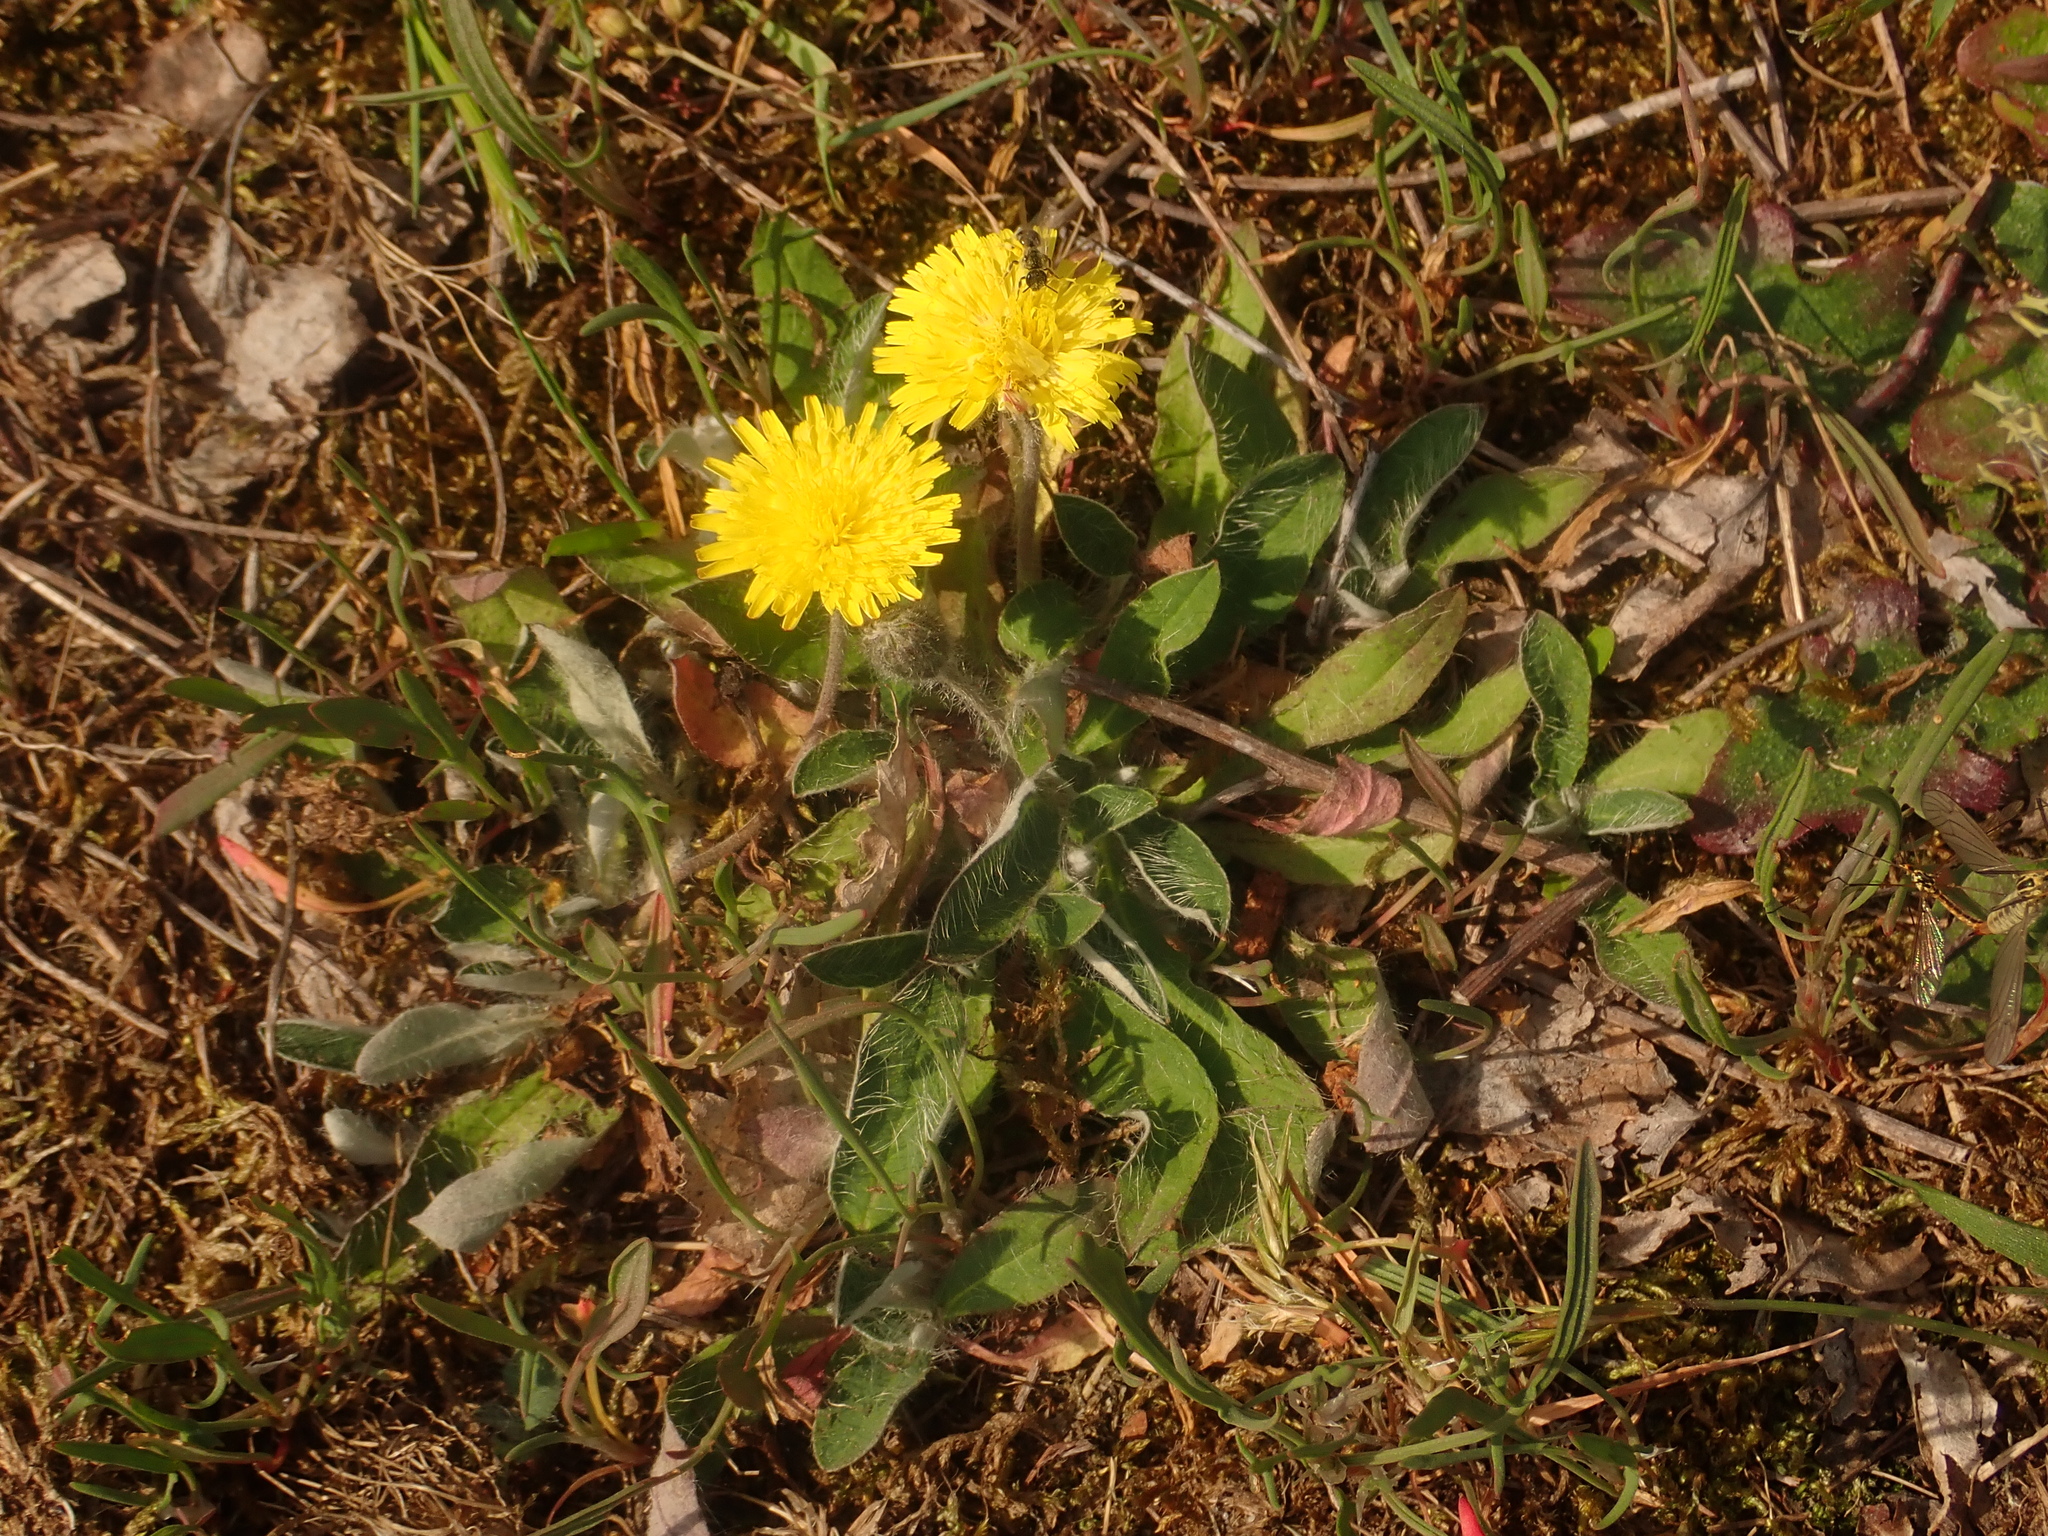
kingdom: Plantae
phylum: Tracheophyta
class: Magnoliopsida
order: Asterales
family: Asteraceae
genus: Pilosella
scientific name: Pilosella officinarum
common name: Mouse-ear hawkweed
